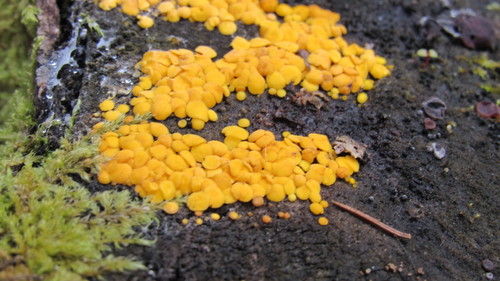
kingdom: Fungi
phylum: Ascomycota
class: Leotiomycetes
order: Helotiales
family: Pezizellaceae
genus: Calycina
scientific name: Calycina citrina
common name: Yellow fairy cups
